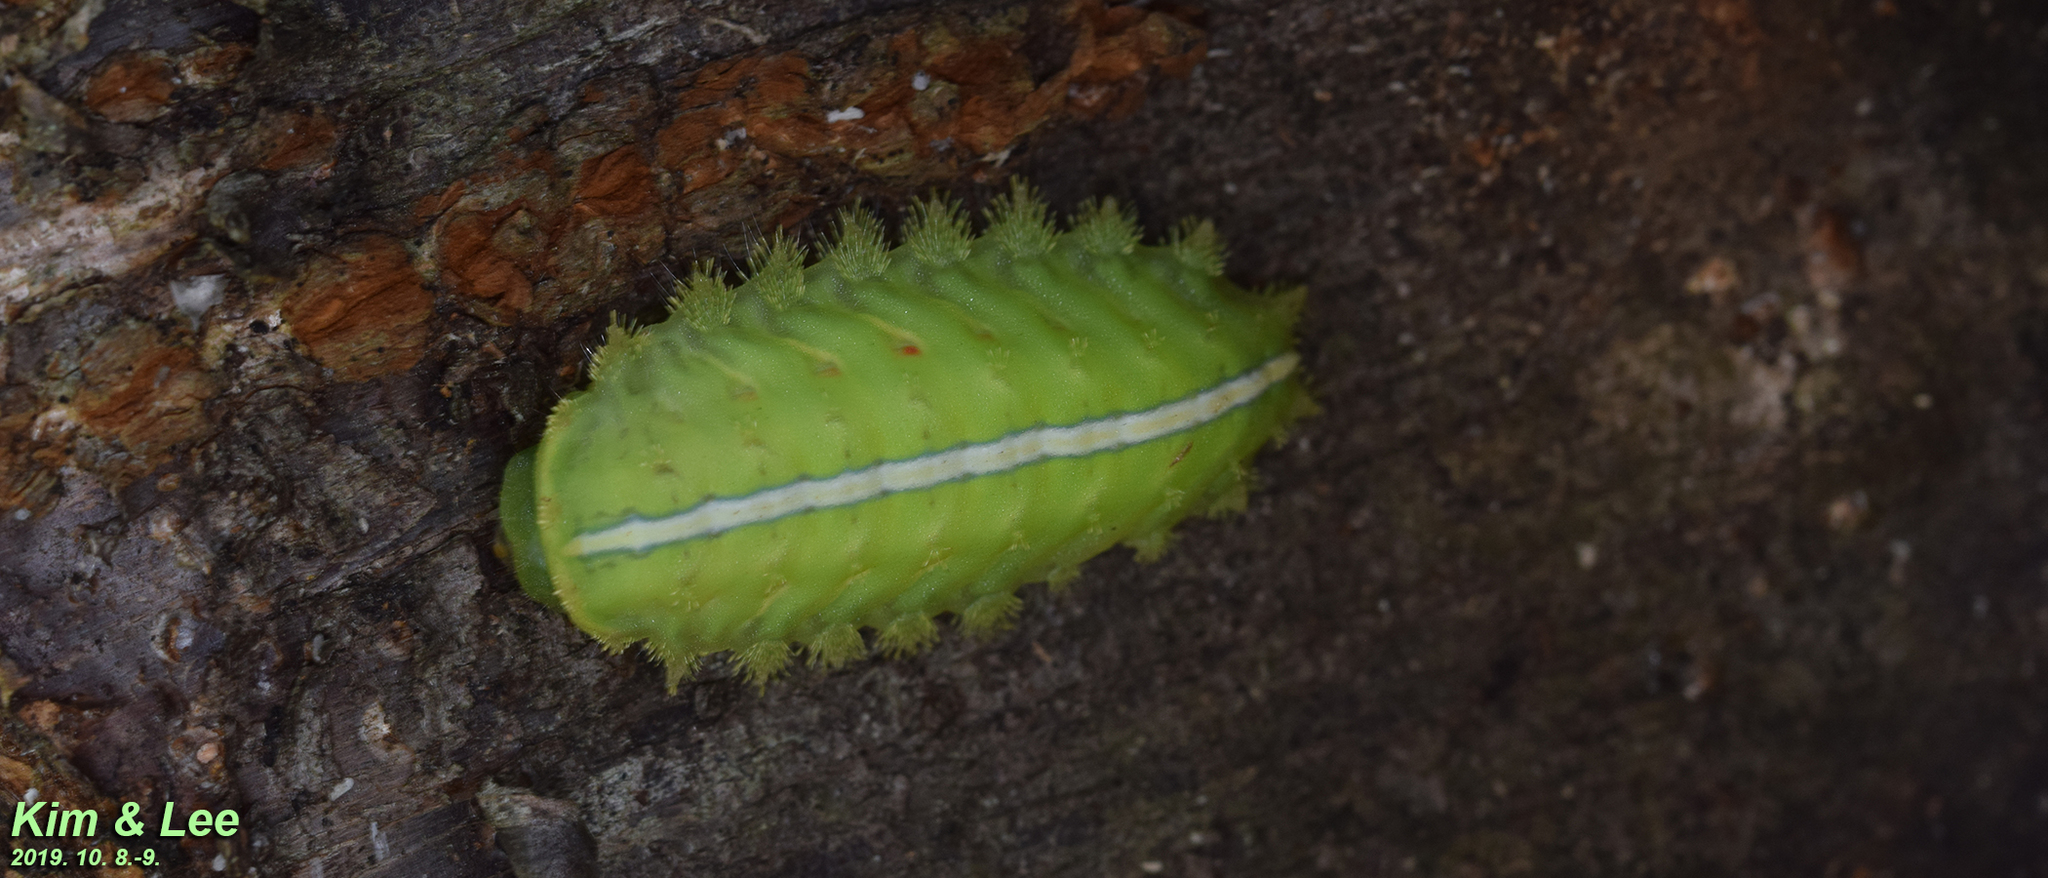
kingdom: Animalia
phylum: Arthropoda
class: Insecta
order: Lepidoptera
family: Limacodidae
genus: Thosea
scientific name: Thosea sinensis
